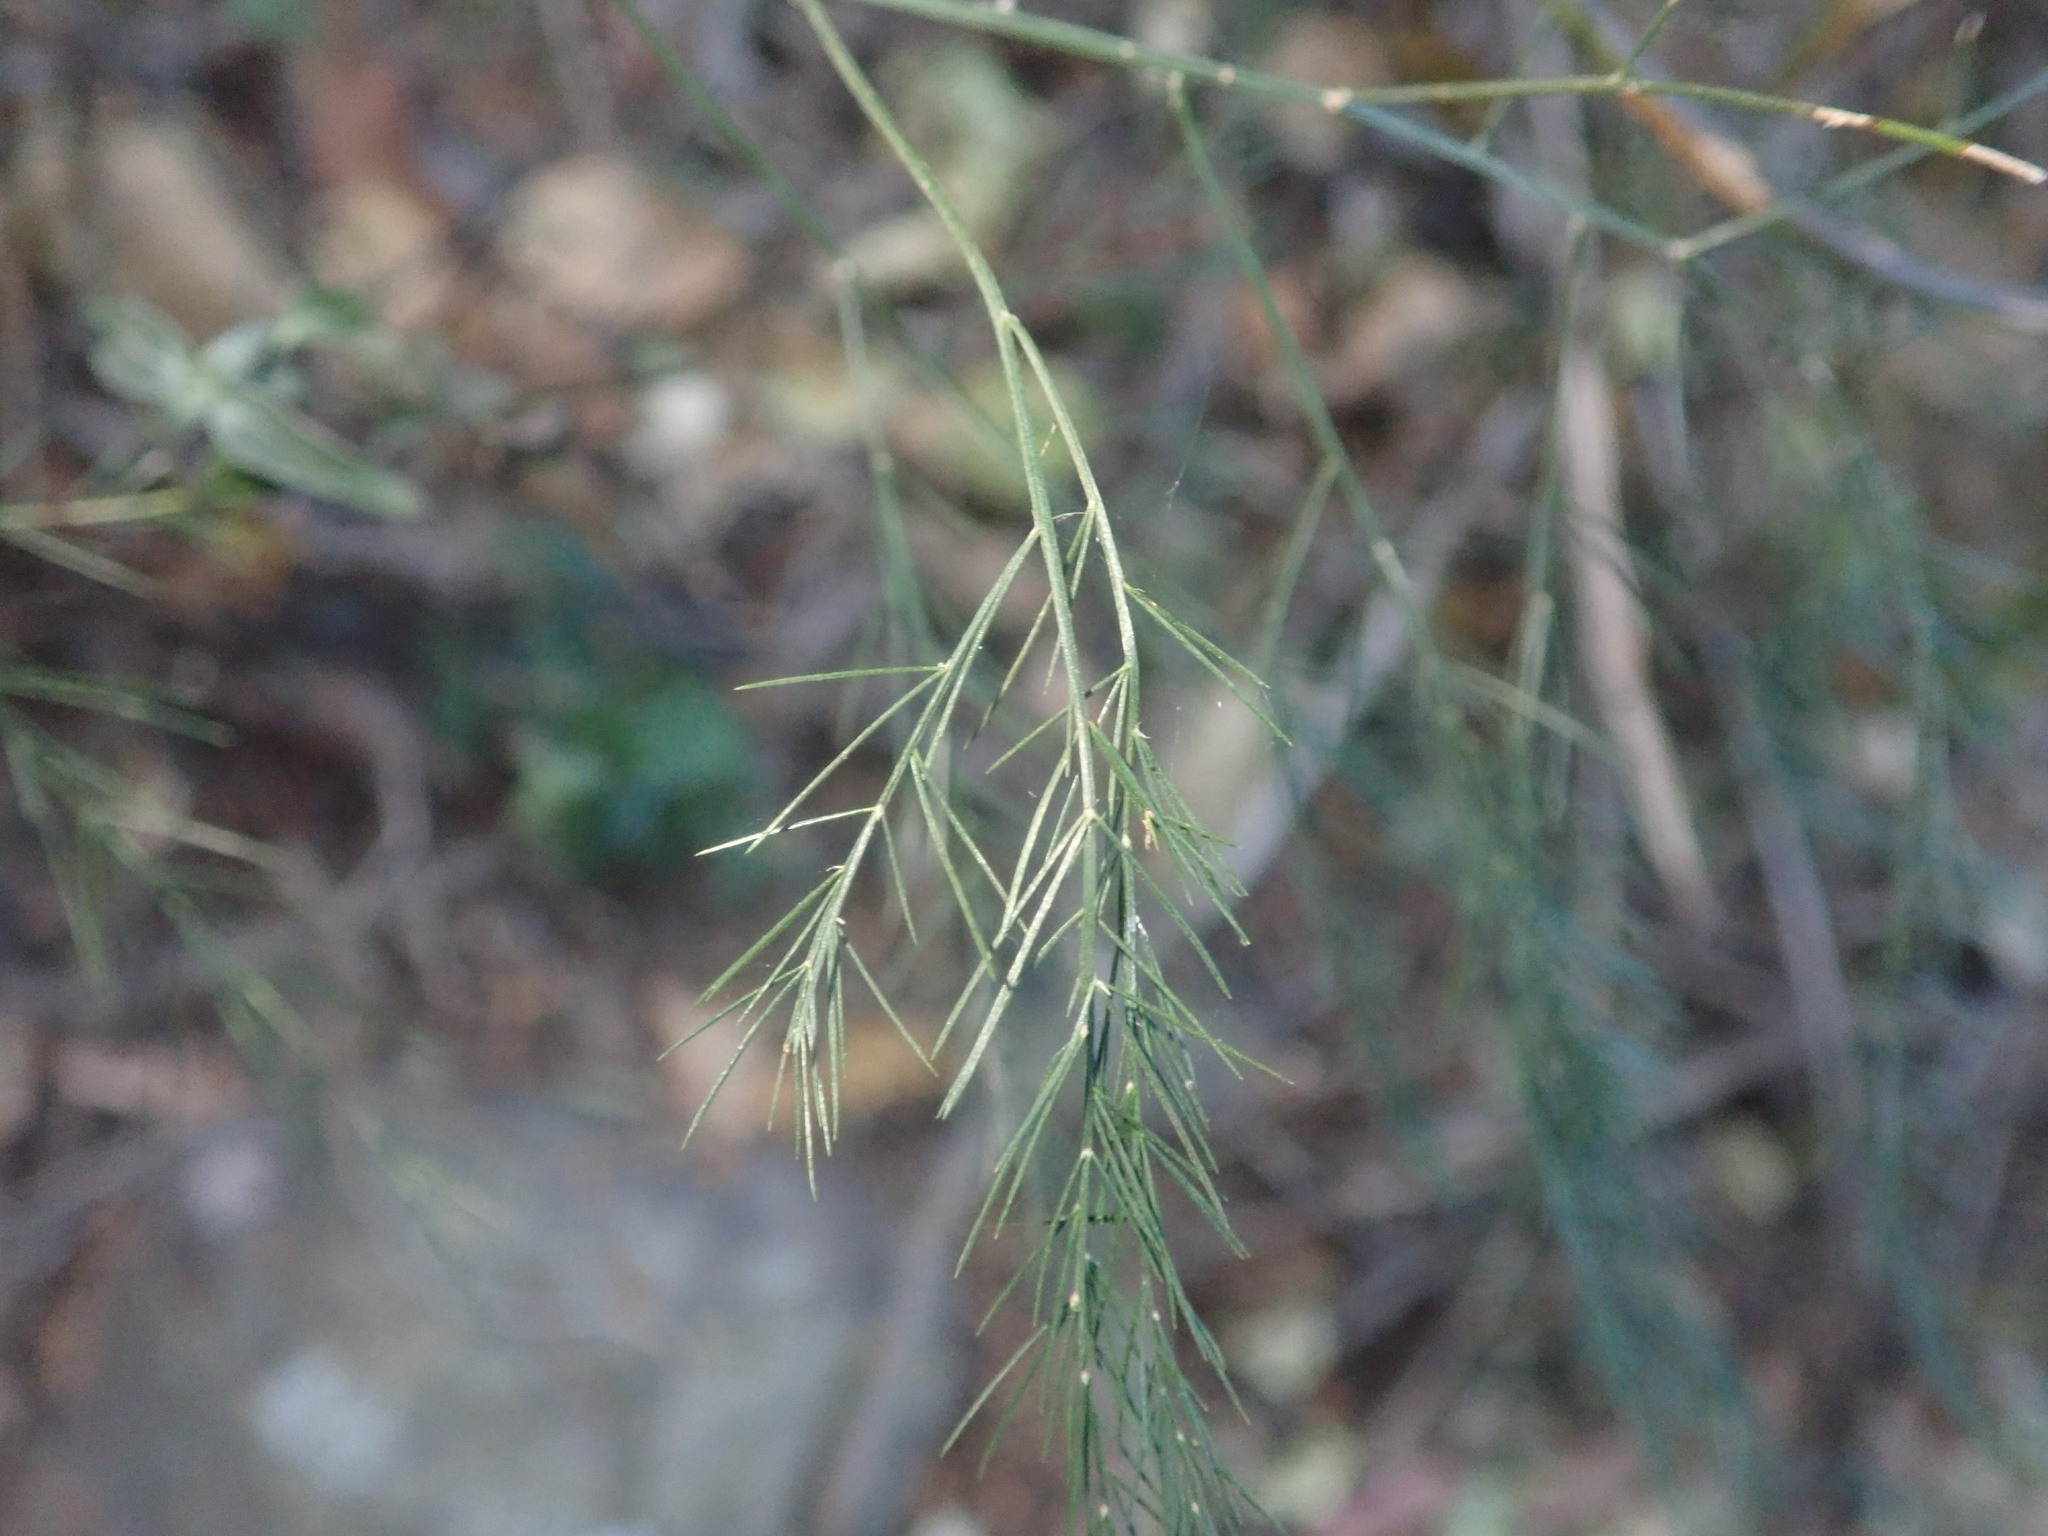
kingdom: Plantae
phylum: Tracheophyta
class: Liliopsida
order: Asparagales
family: Asparagaceae
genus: Asparagus
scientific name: Asparagus virgatus
